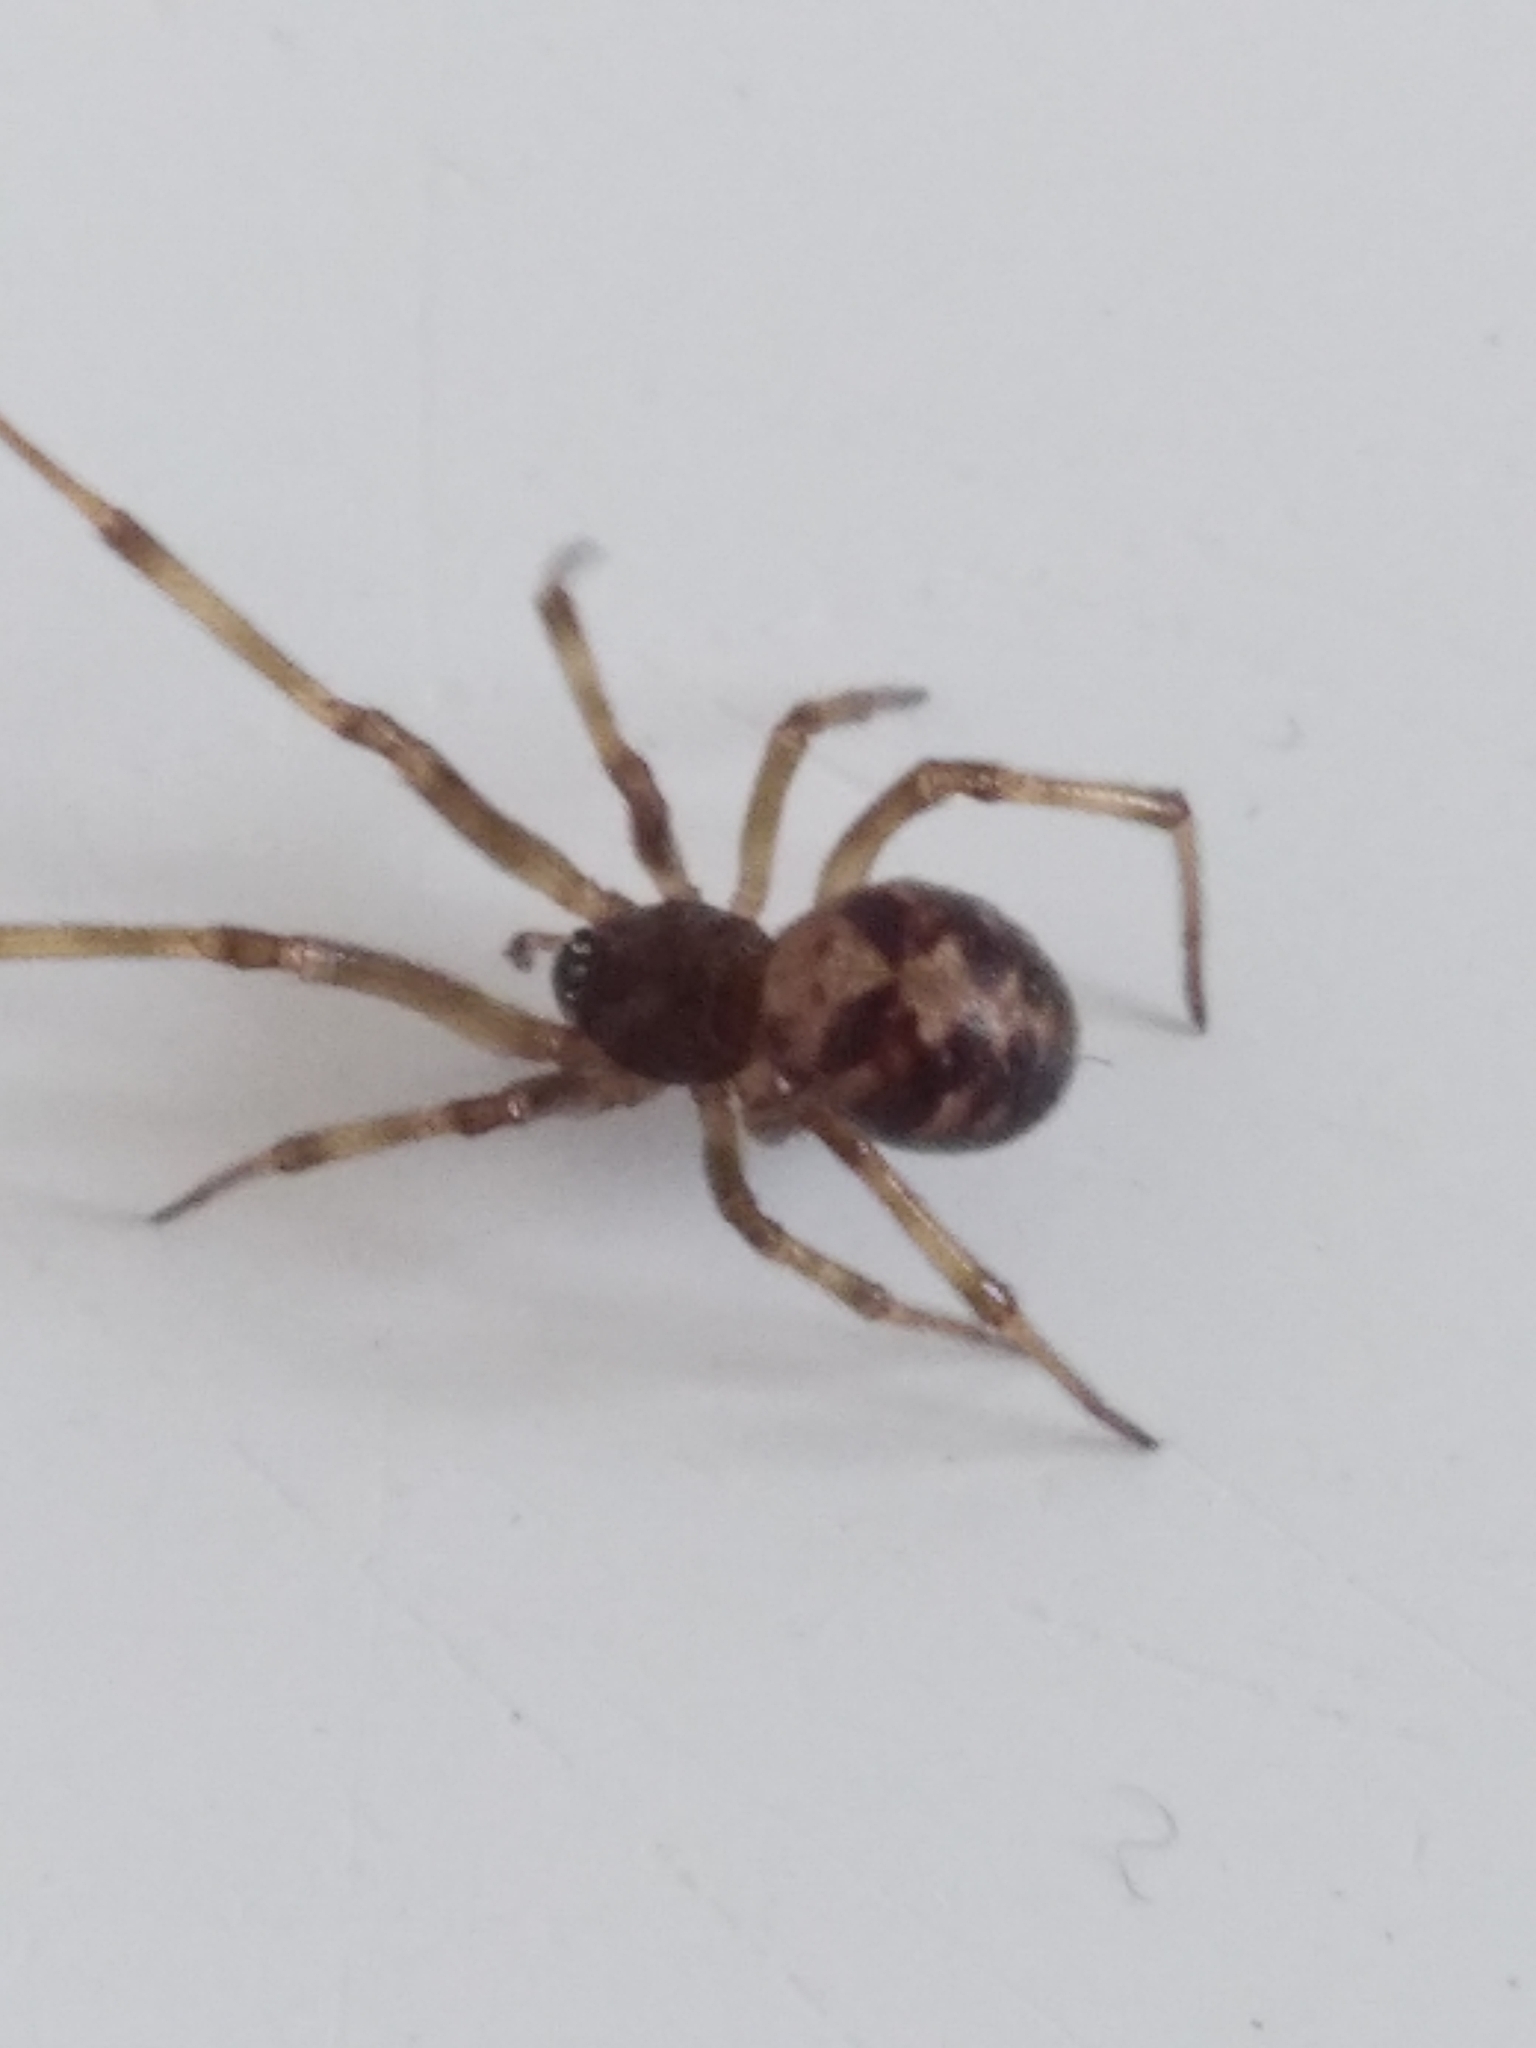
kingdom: Animalia
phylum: Arthropoda
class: Arachnida
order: Araneae
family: Theridiidae
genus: Steatoda
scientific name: Steatoda triangulosa
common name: Triangulate bud spider
